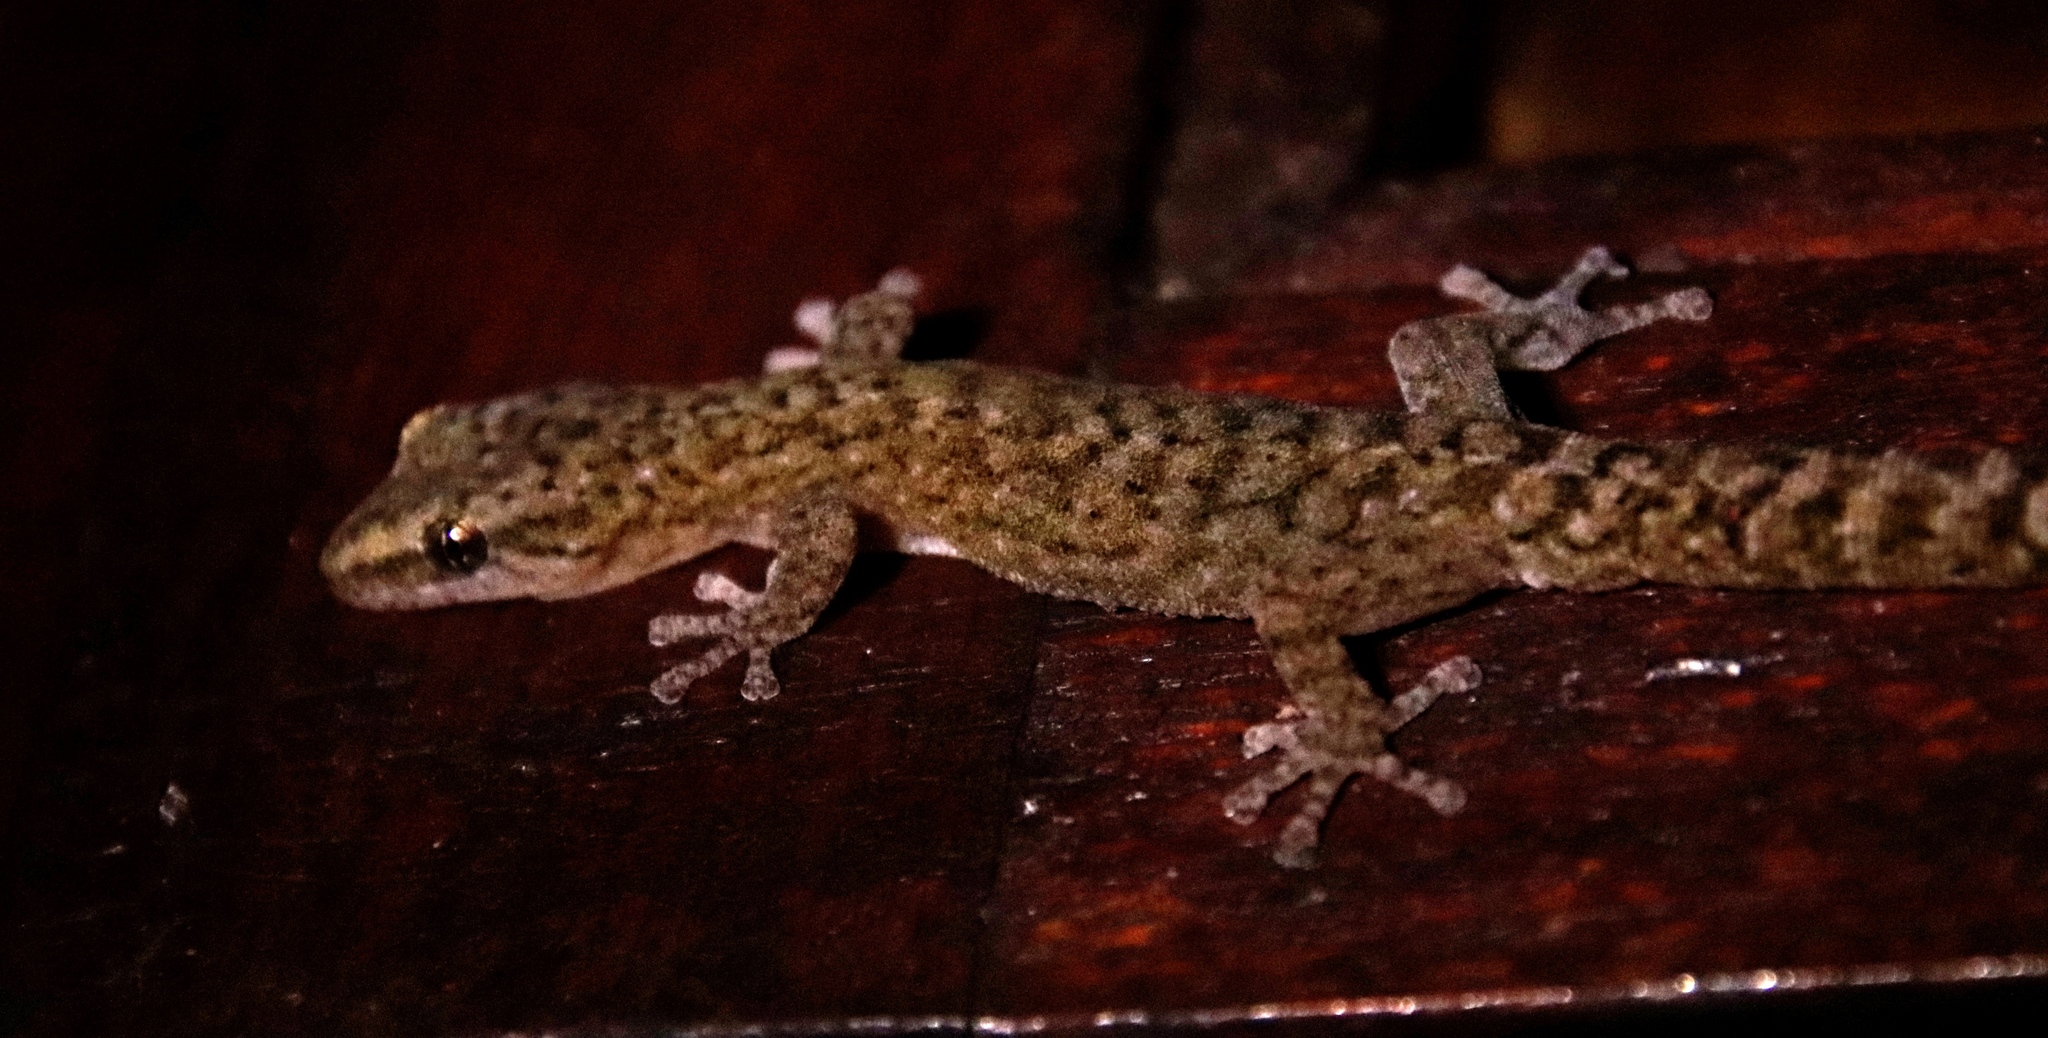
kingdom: Animalia
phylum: Chordata
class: Squamata
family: Gekkonidae
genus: Afrogecko
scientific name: Afrogecko porphyreus
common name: Marbled leaf-toed gecko
